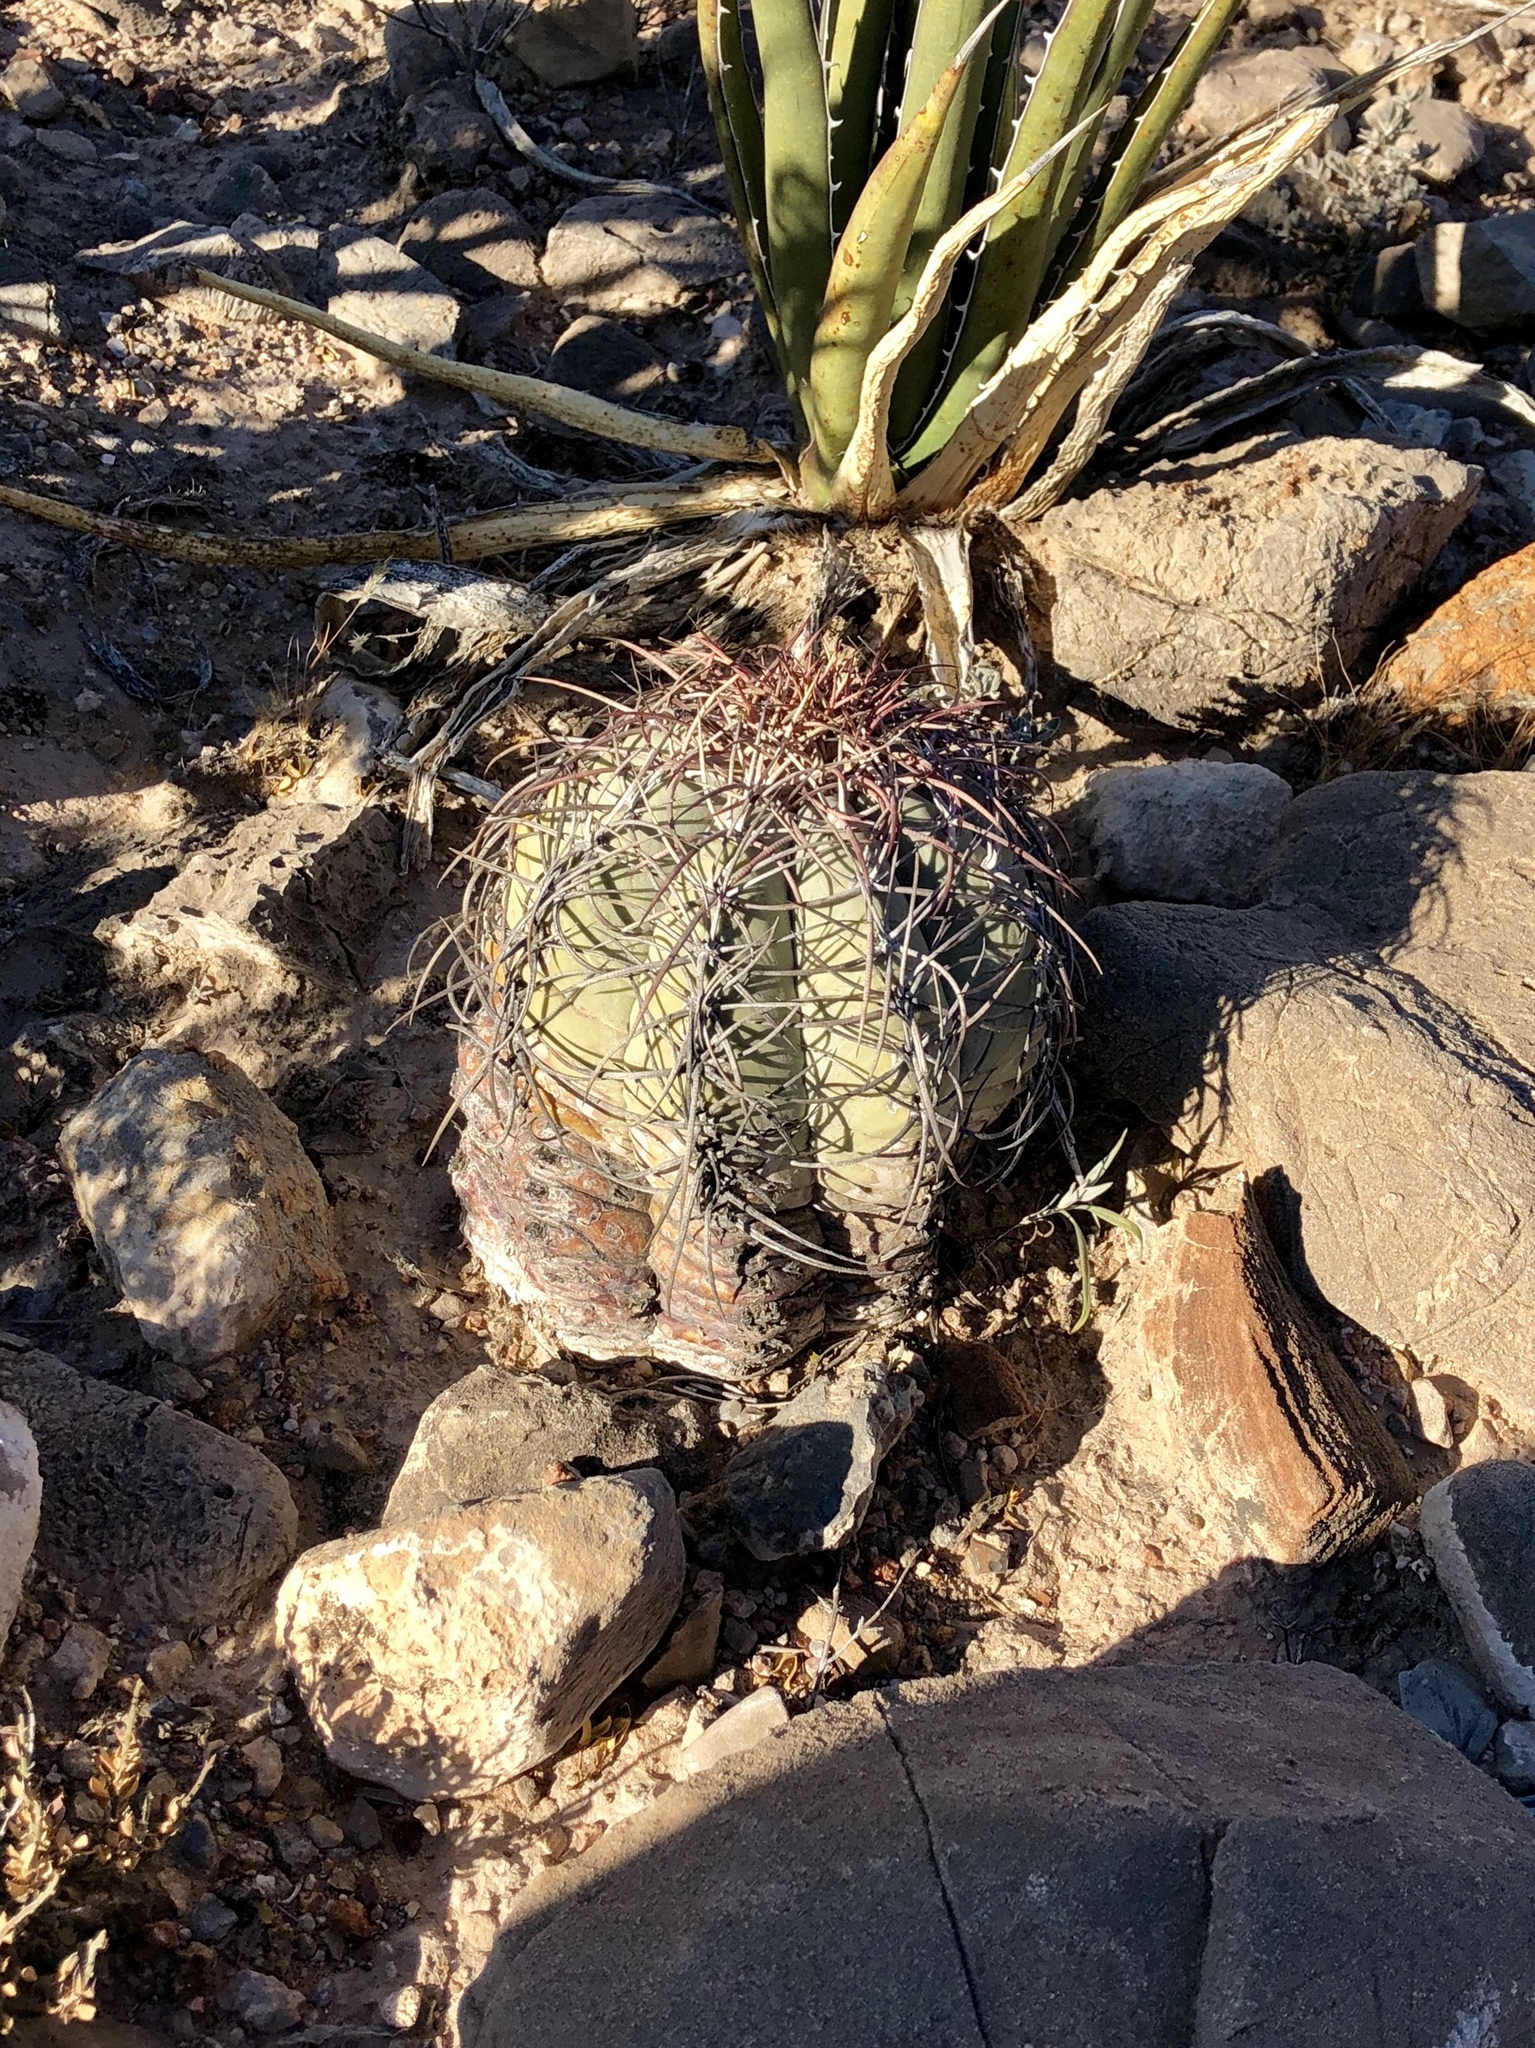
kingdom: Plantae
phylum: Tracheophyta
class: Magnoliopsida
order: Caryophyllales
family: Cactaceae
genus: Echinocactus
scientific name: Echinocactus horizonthalonius
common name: Devilshead
